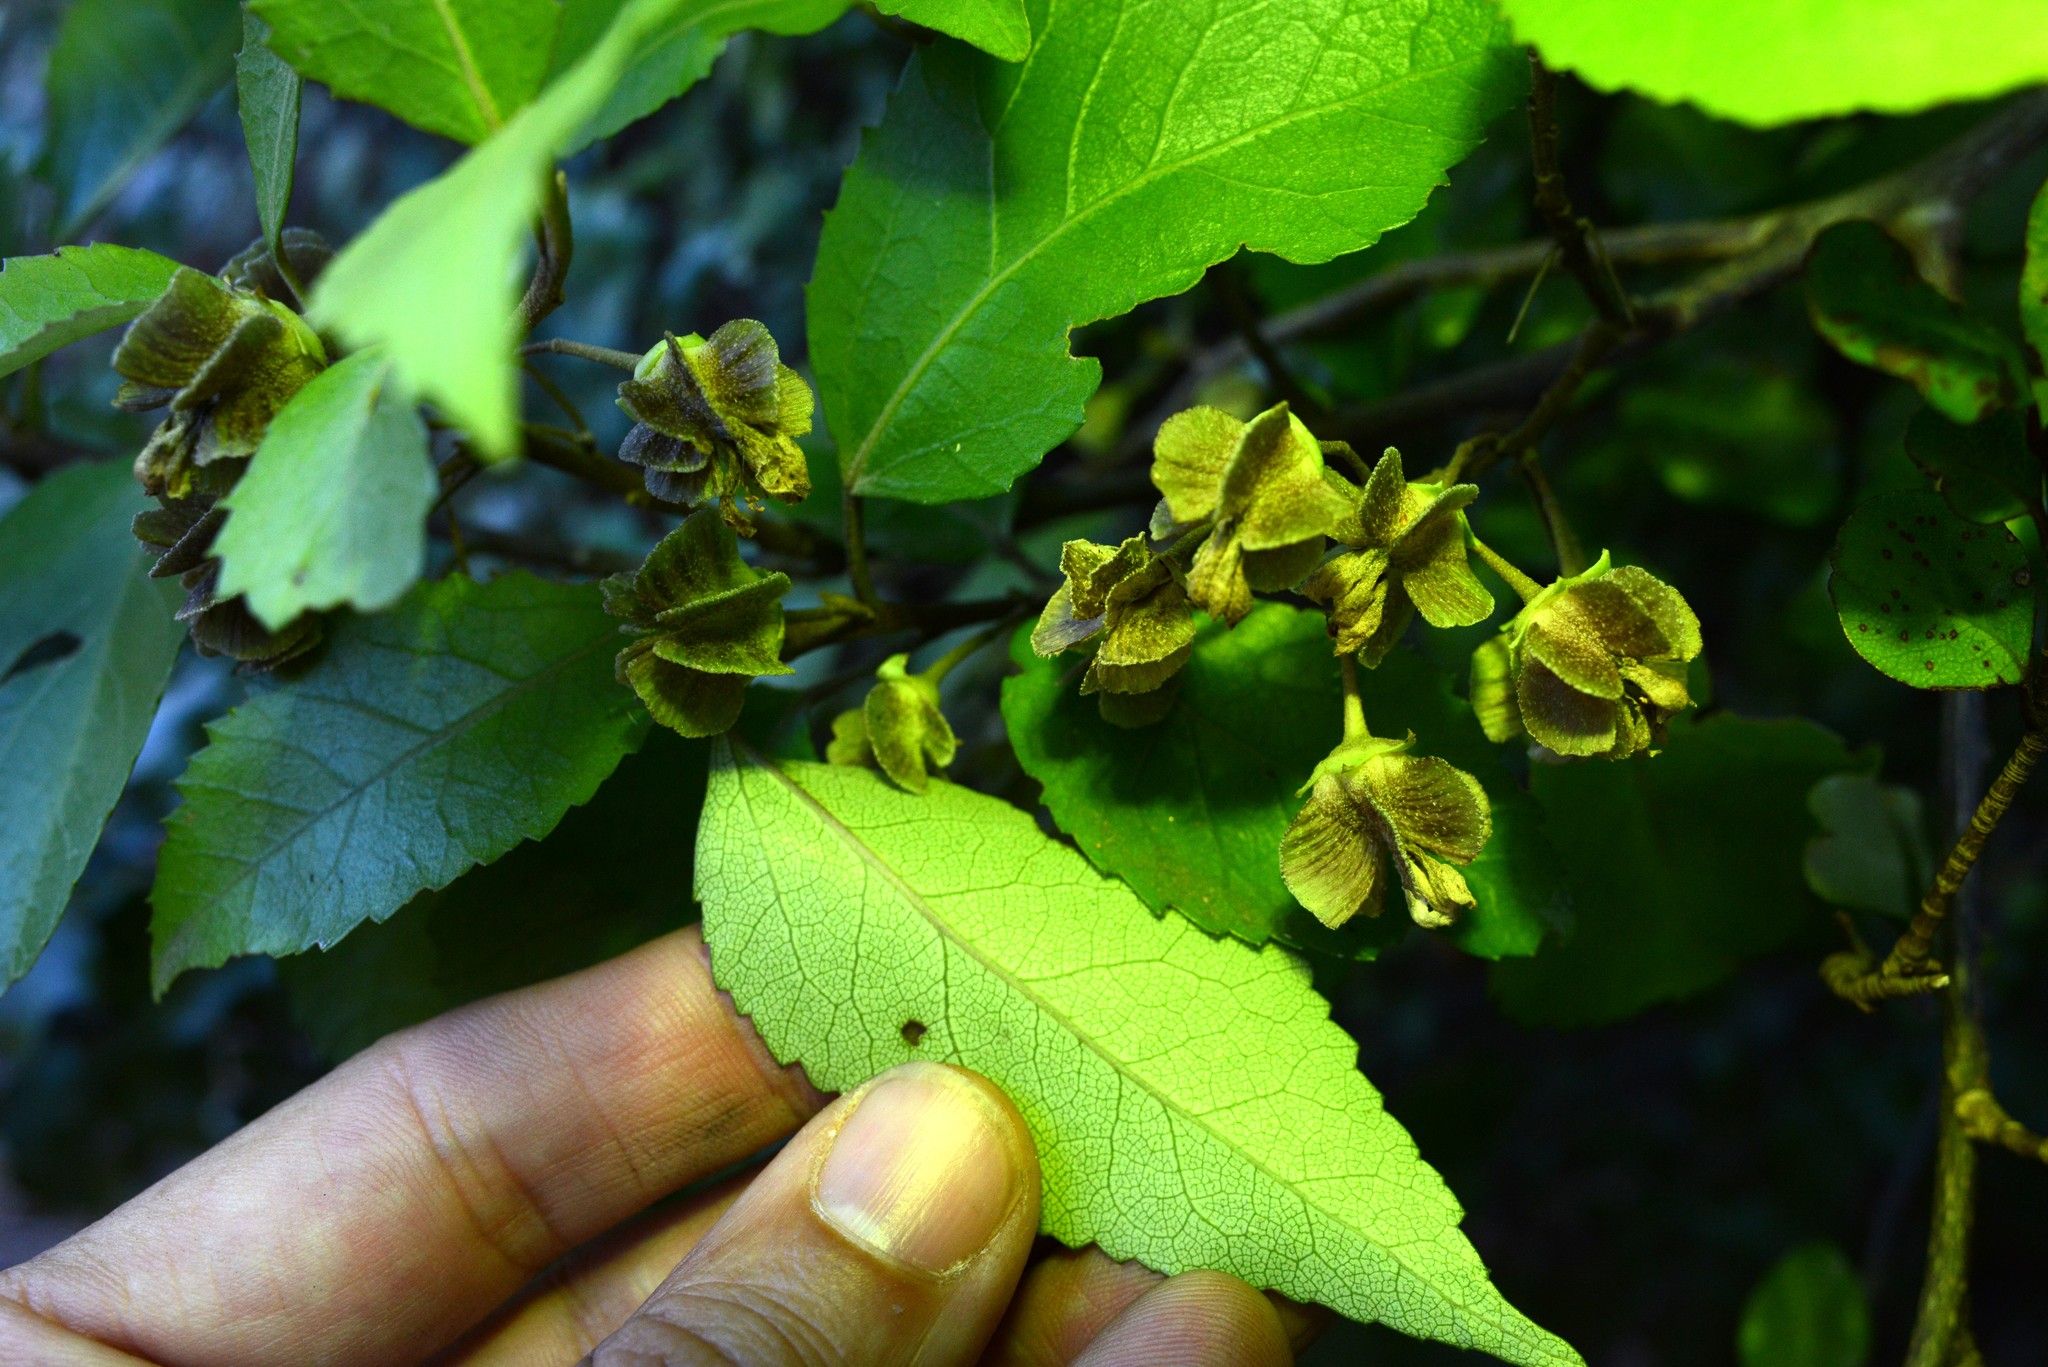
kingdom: Plantae
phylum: Tracheophyta
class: Magnoliopsida
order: Malvales
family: Malvaceae
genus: Hoheria
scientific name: Hoheria populnea
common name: Lacebark
